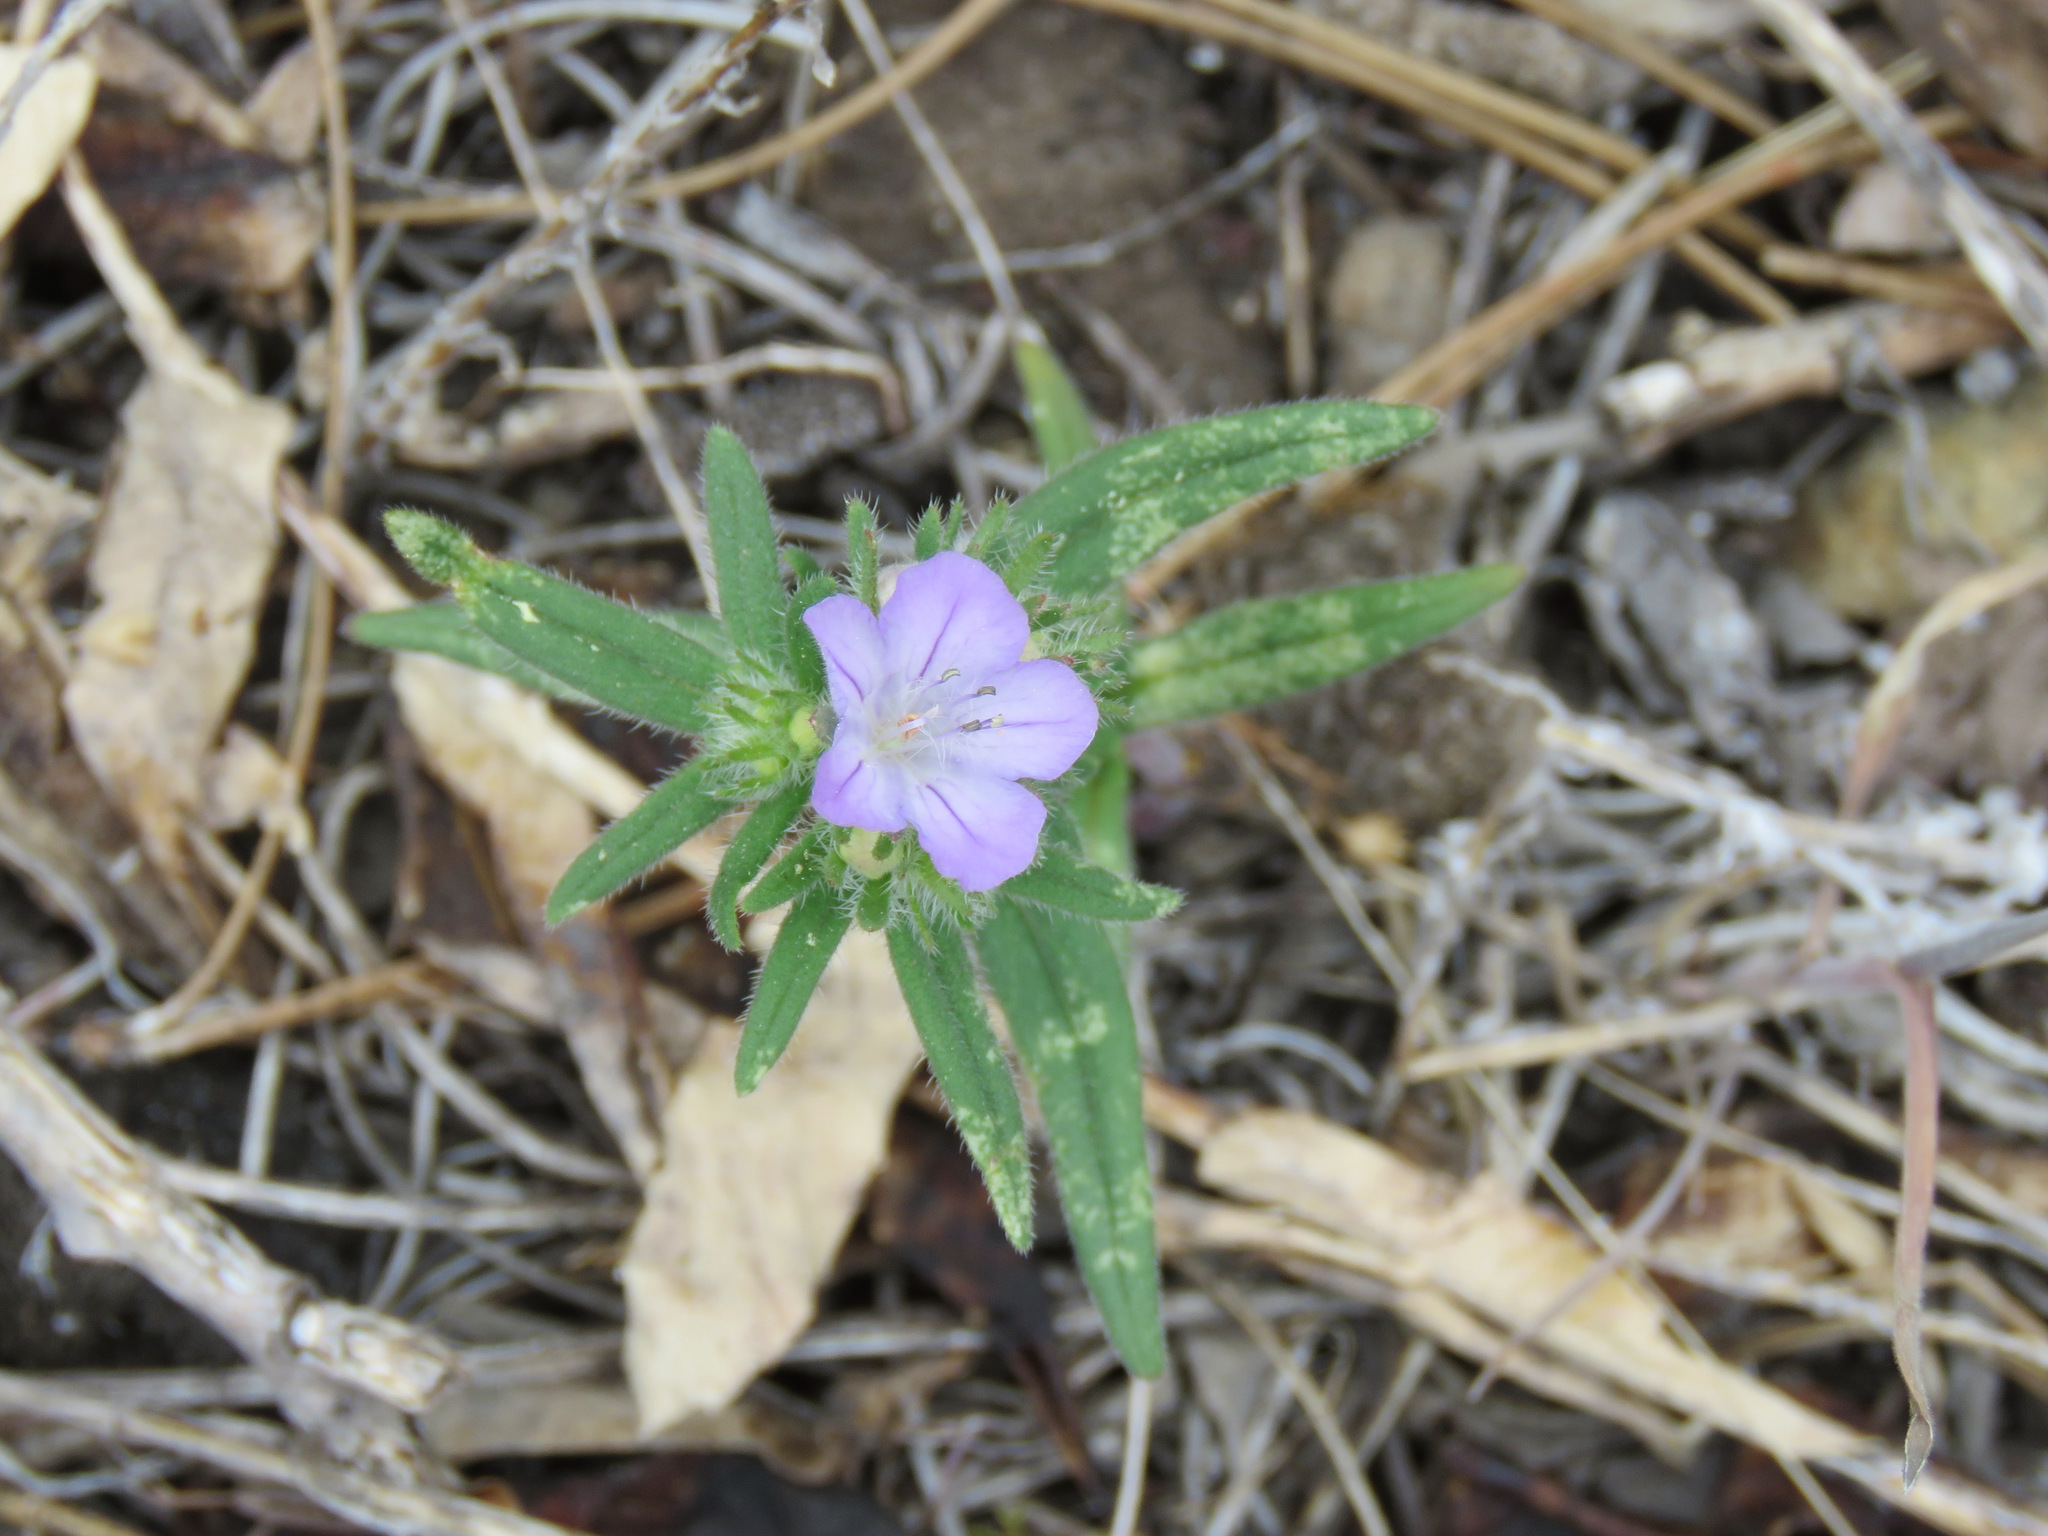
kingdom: Plantae
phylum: Tracheophyta
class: Magnoliopsida
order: Boraginales
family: Hydrophyllaceae
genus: Phacelia
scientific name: Phacelia linearis
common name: Linear-leaved phacelia
